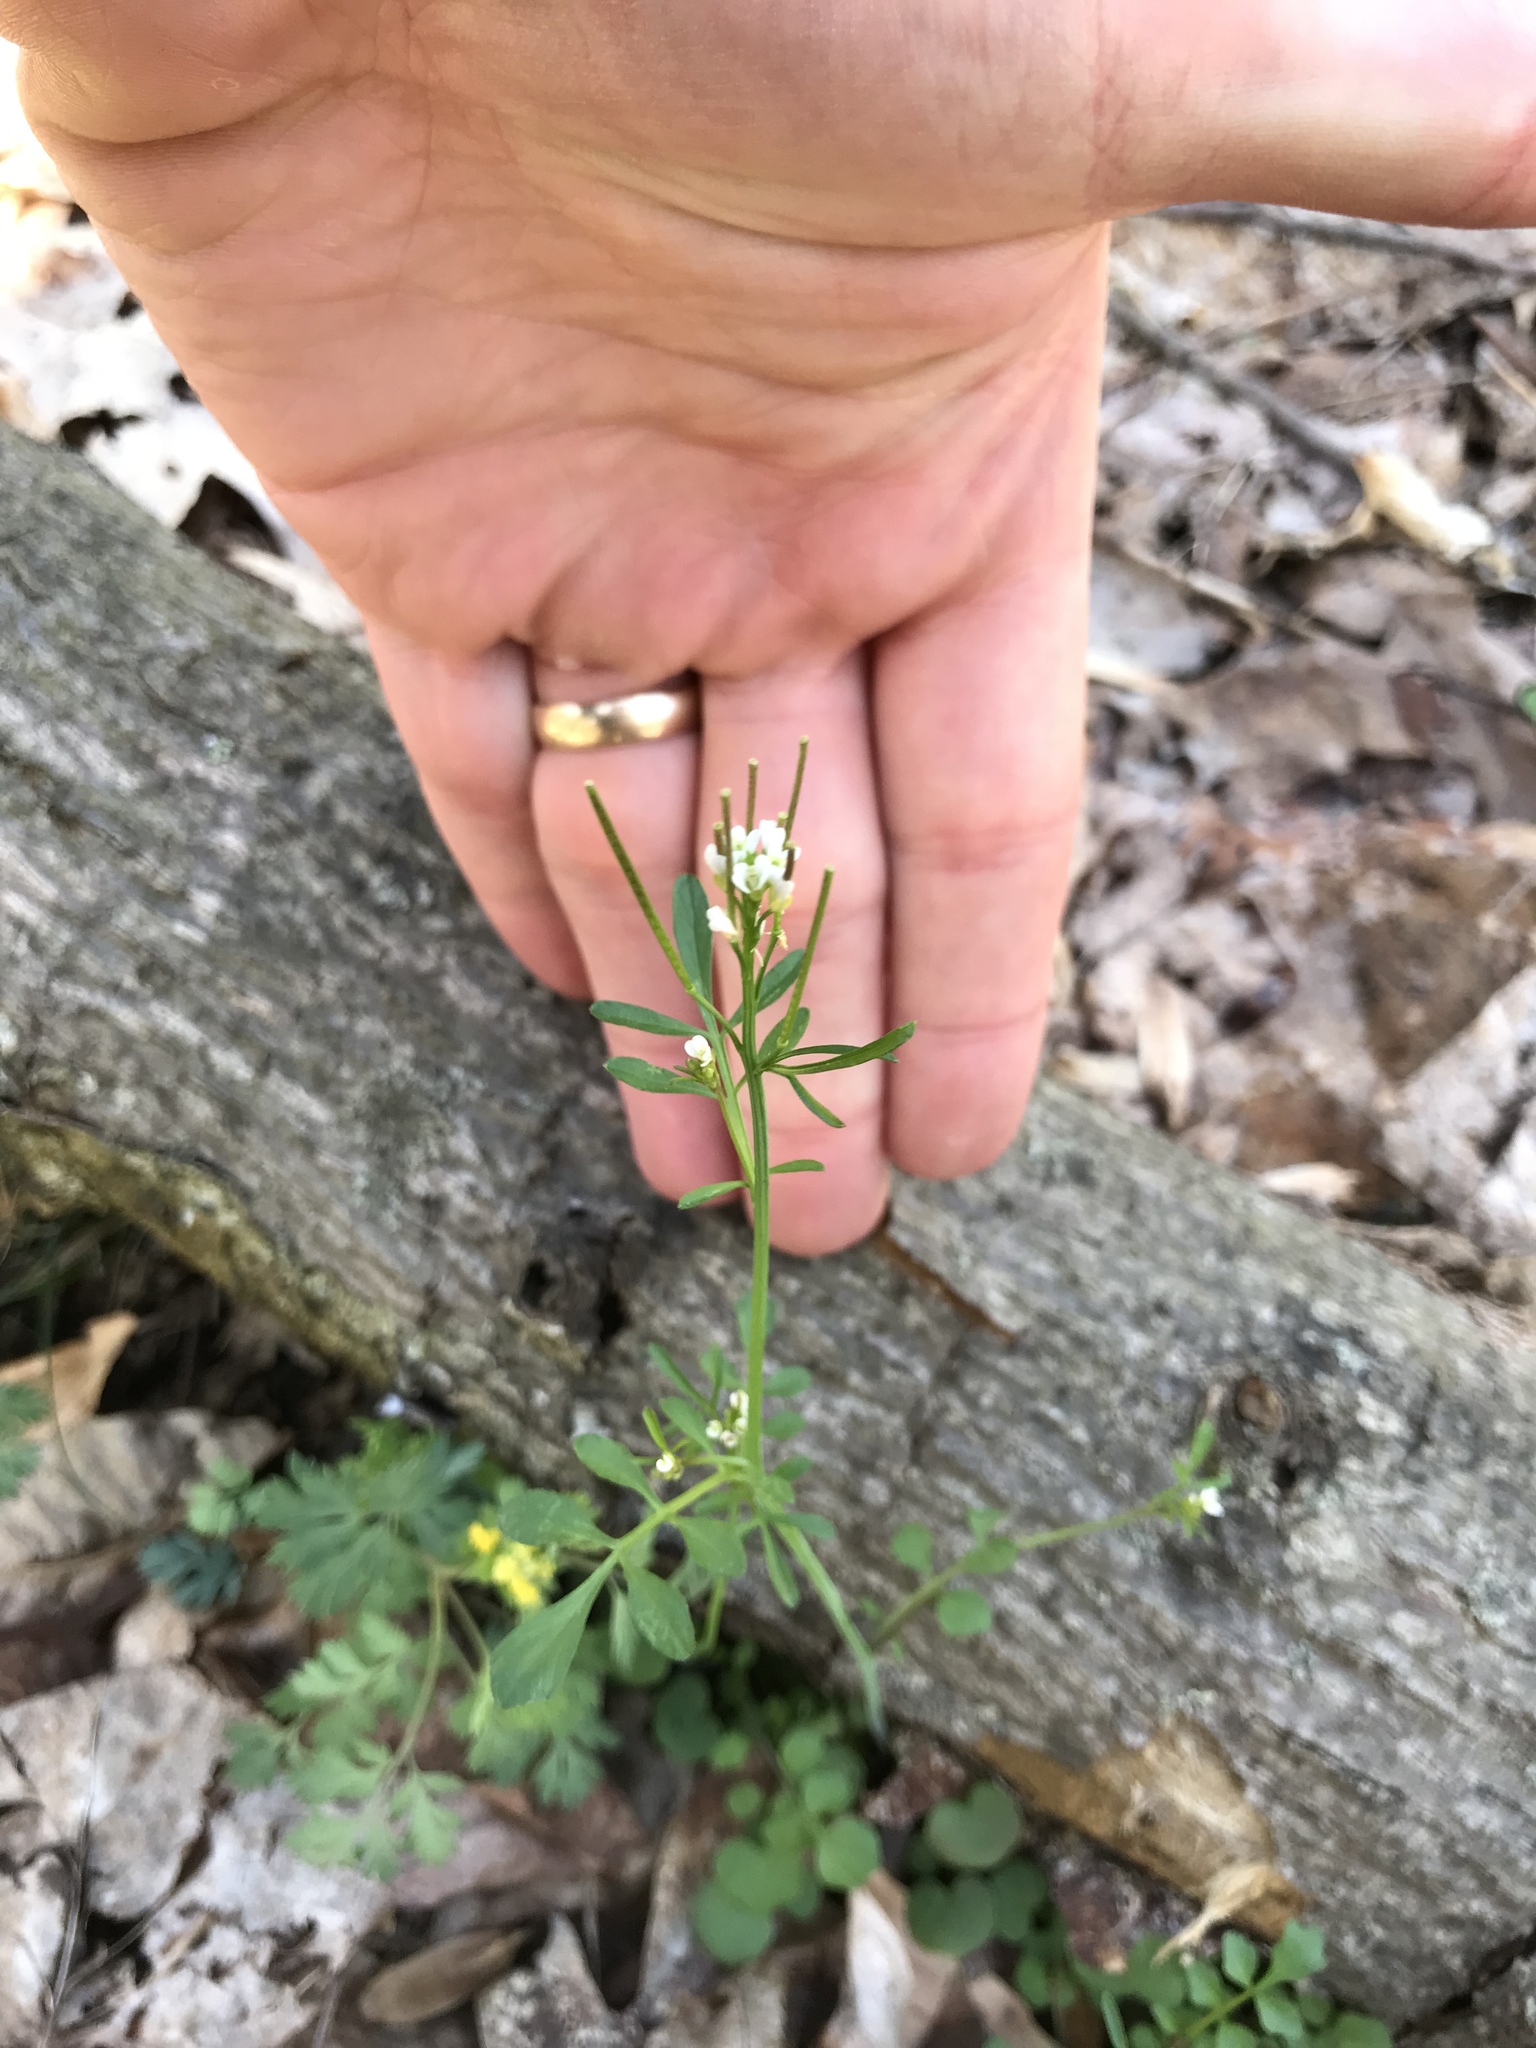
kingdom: Plantae
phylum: Tracheophyta
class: Magnoliopsida
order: Brassicales
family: Brassicaceae
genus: Cardamine
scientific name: Cardamine hirsuta
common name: Hairy bittercress
